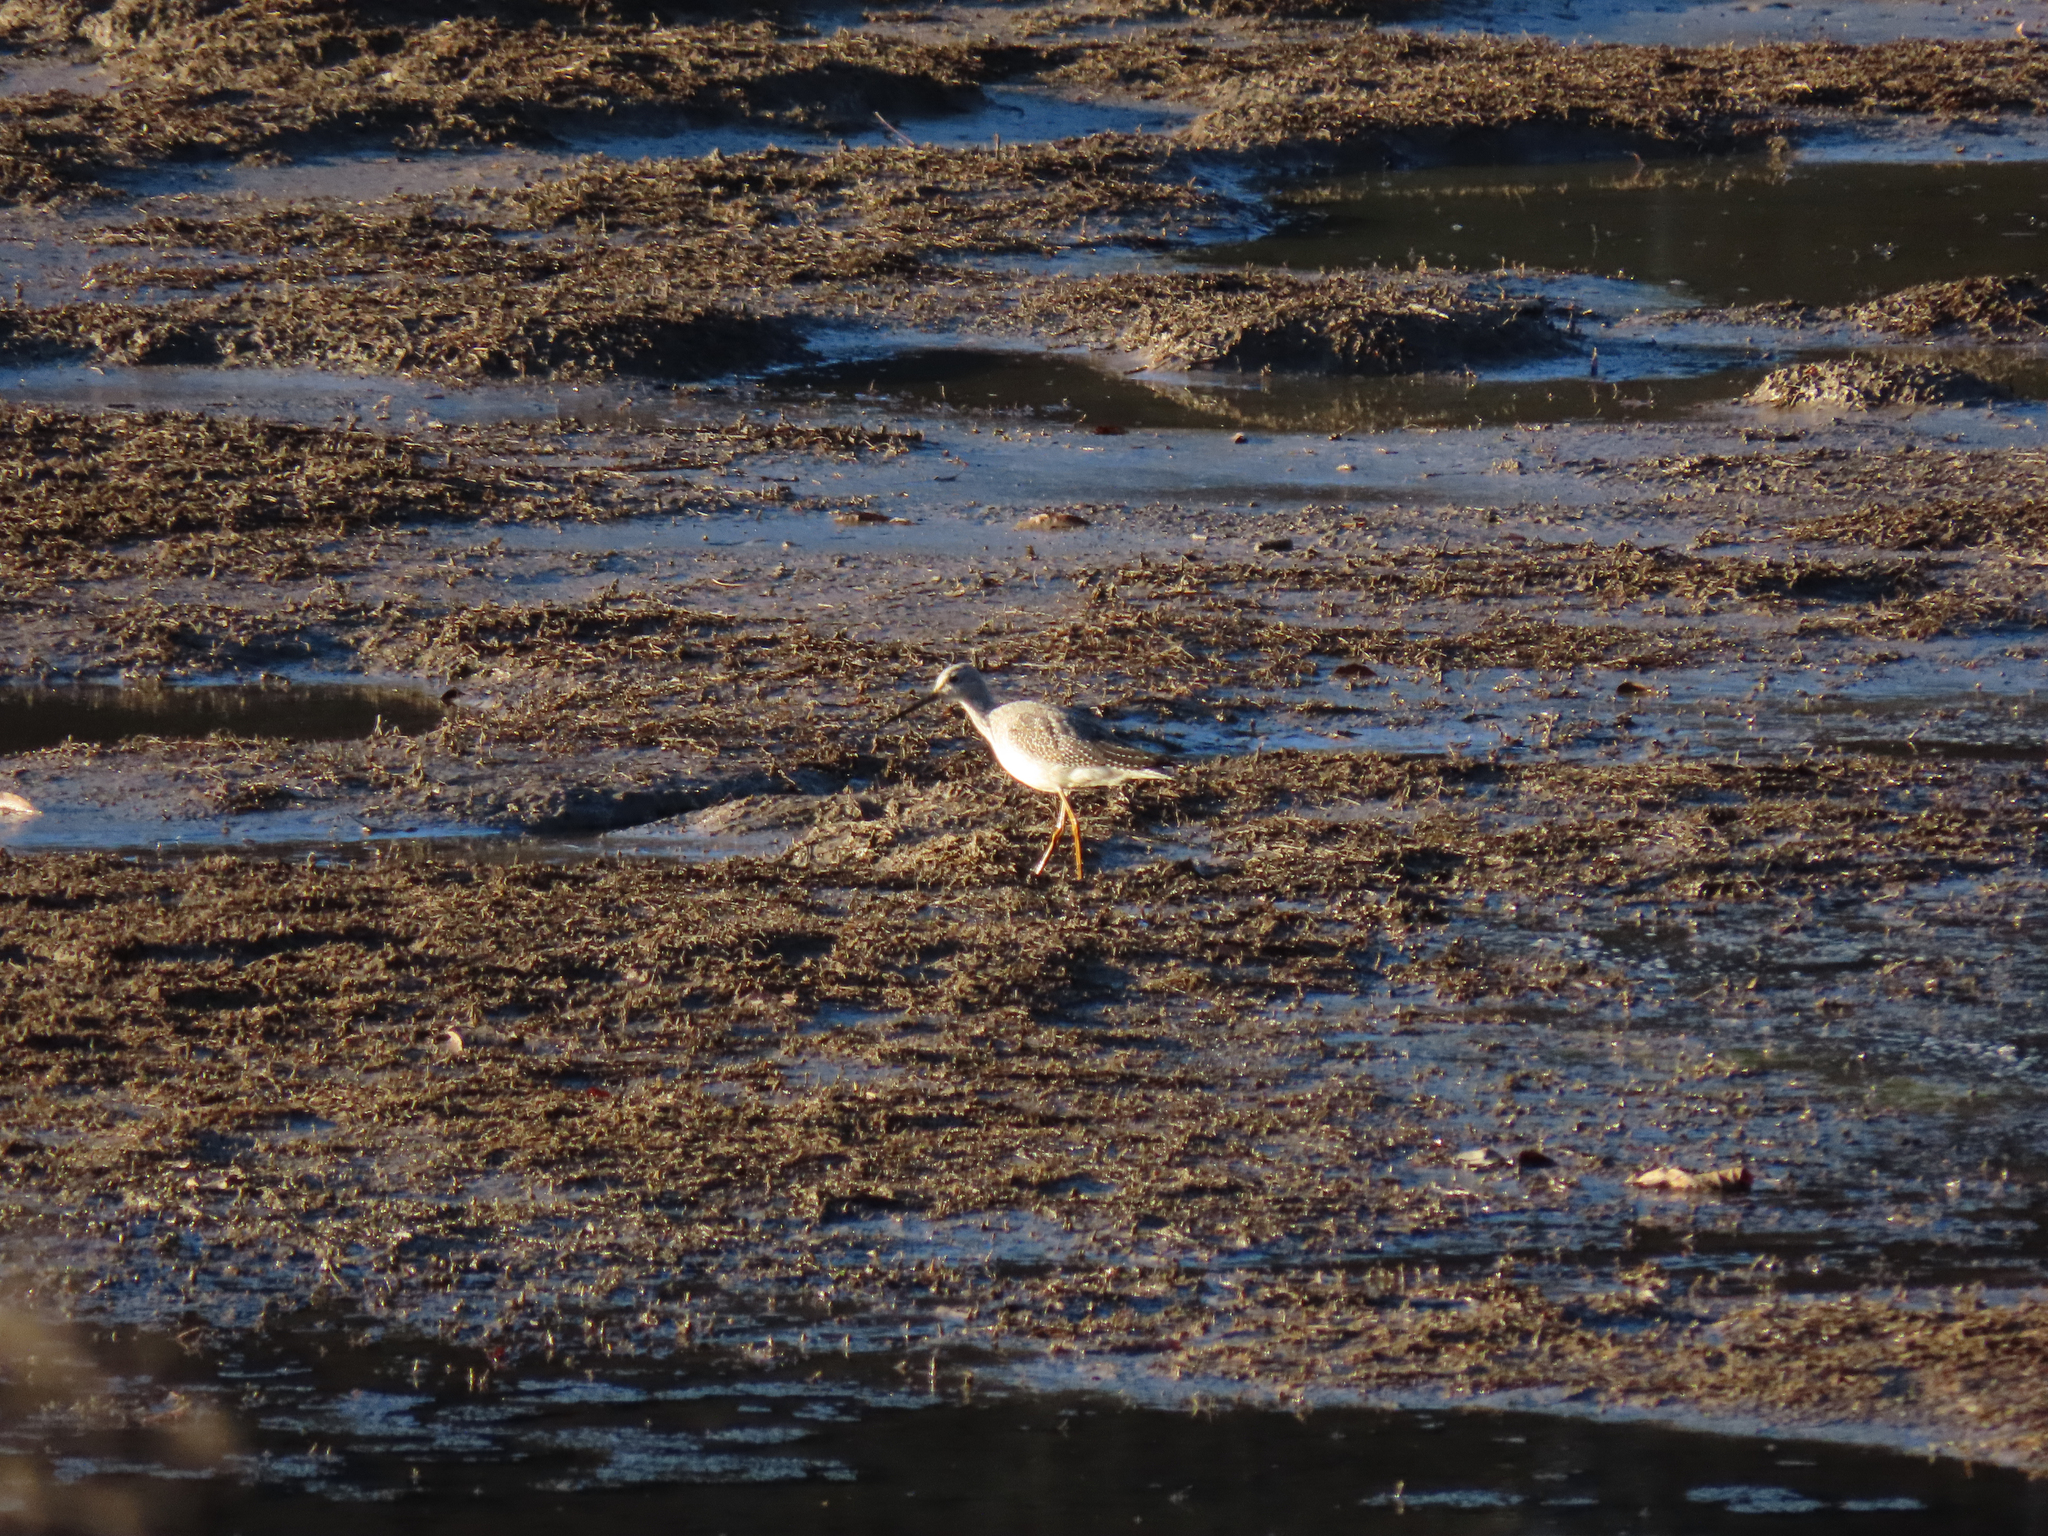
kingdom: Animalia
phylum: Chordata
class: Aves
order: Charadriiformes
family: Scolopacidae
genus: Tringa
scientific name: Tringa melanoleuca
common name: Greater yellowlegs
